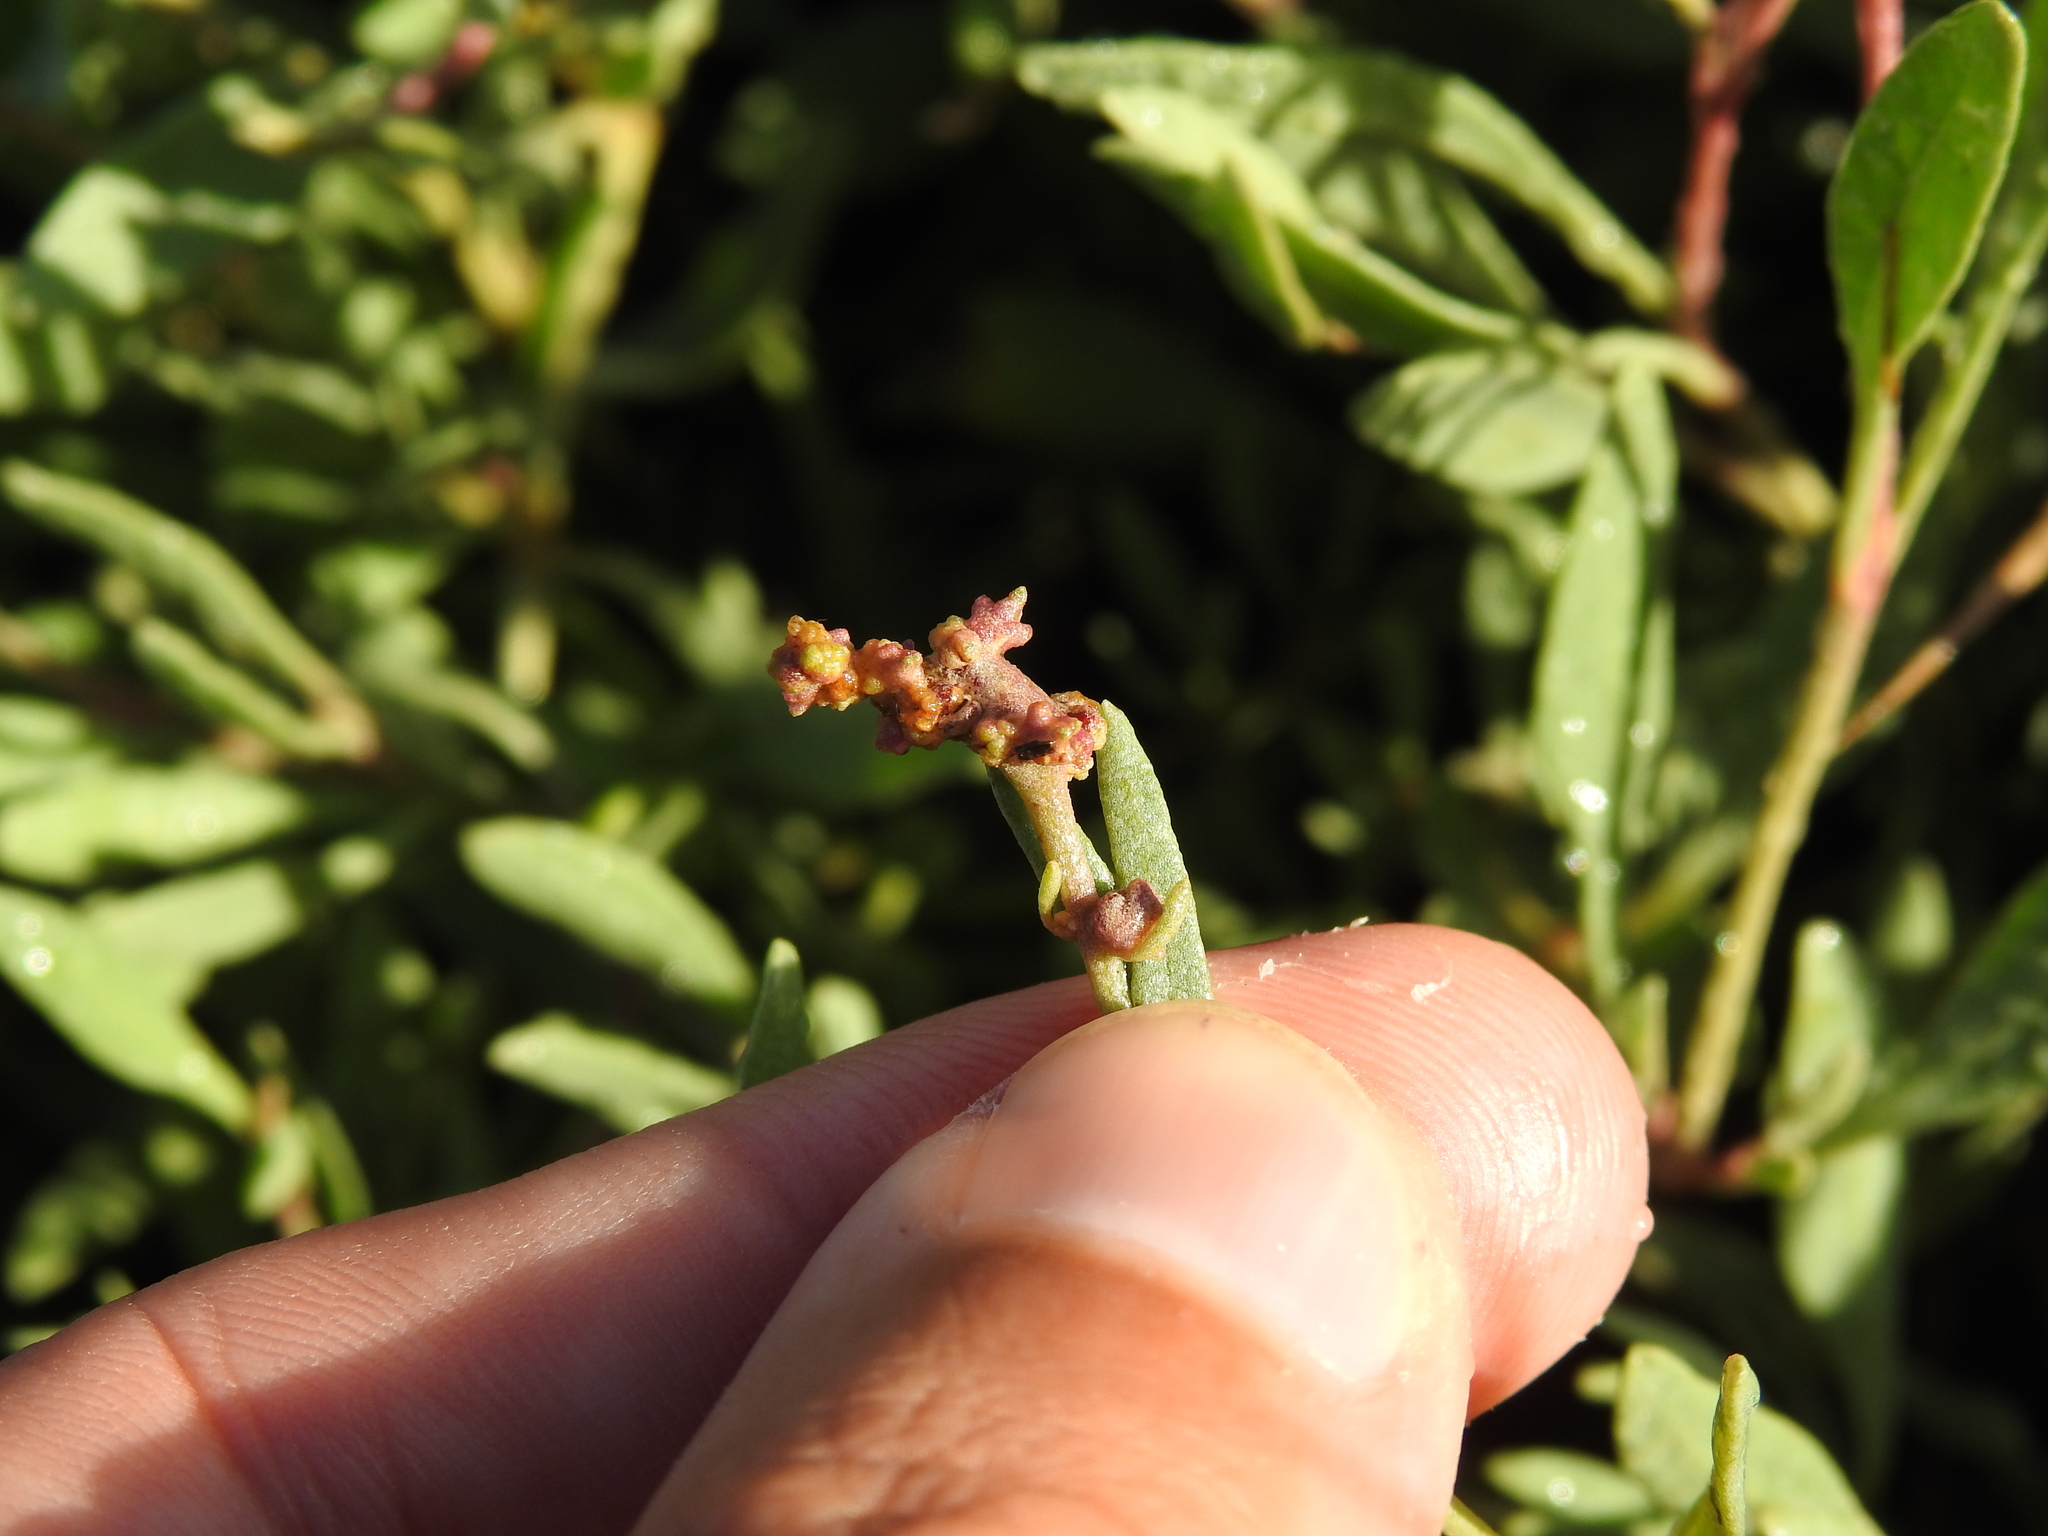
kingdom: Animalia
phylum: Arthropoda
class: Arachnida
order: Trombidiformes
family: Eriophyidae
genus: Eriophyes
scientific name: Eriophyes obiones
